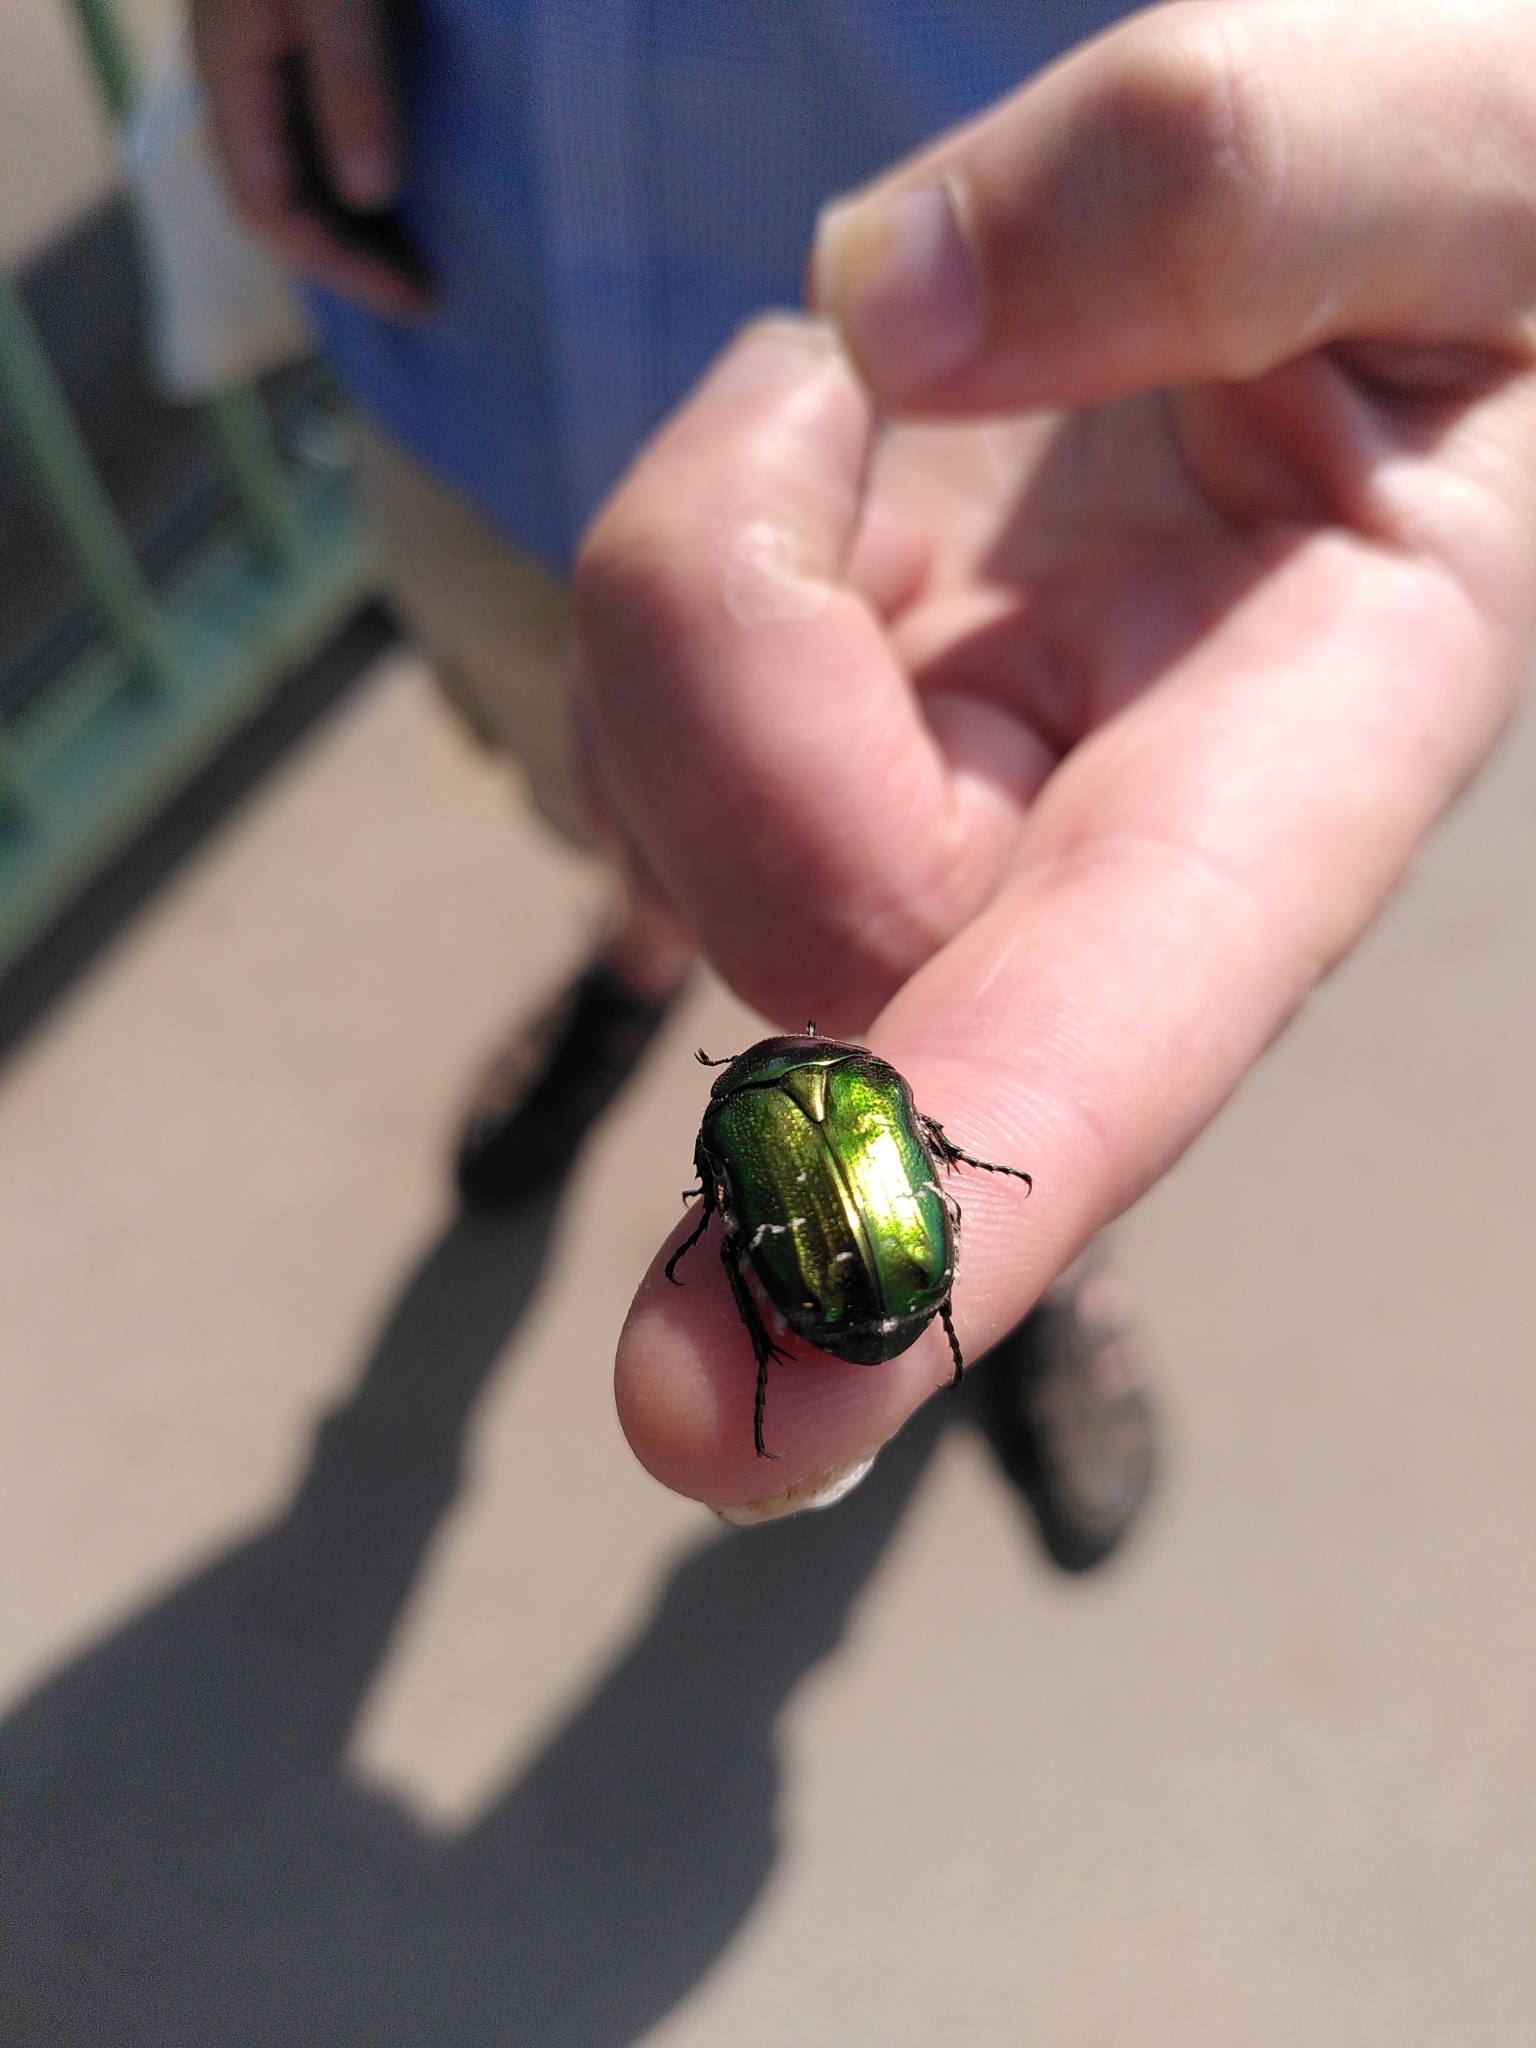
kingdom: Animalia
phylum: Arthropoda
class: Insecta
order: Coleoptera
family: Scarabaeidae
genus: Cetonia
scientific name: Cetonia aurata
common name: Rose chafer
